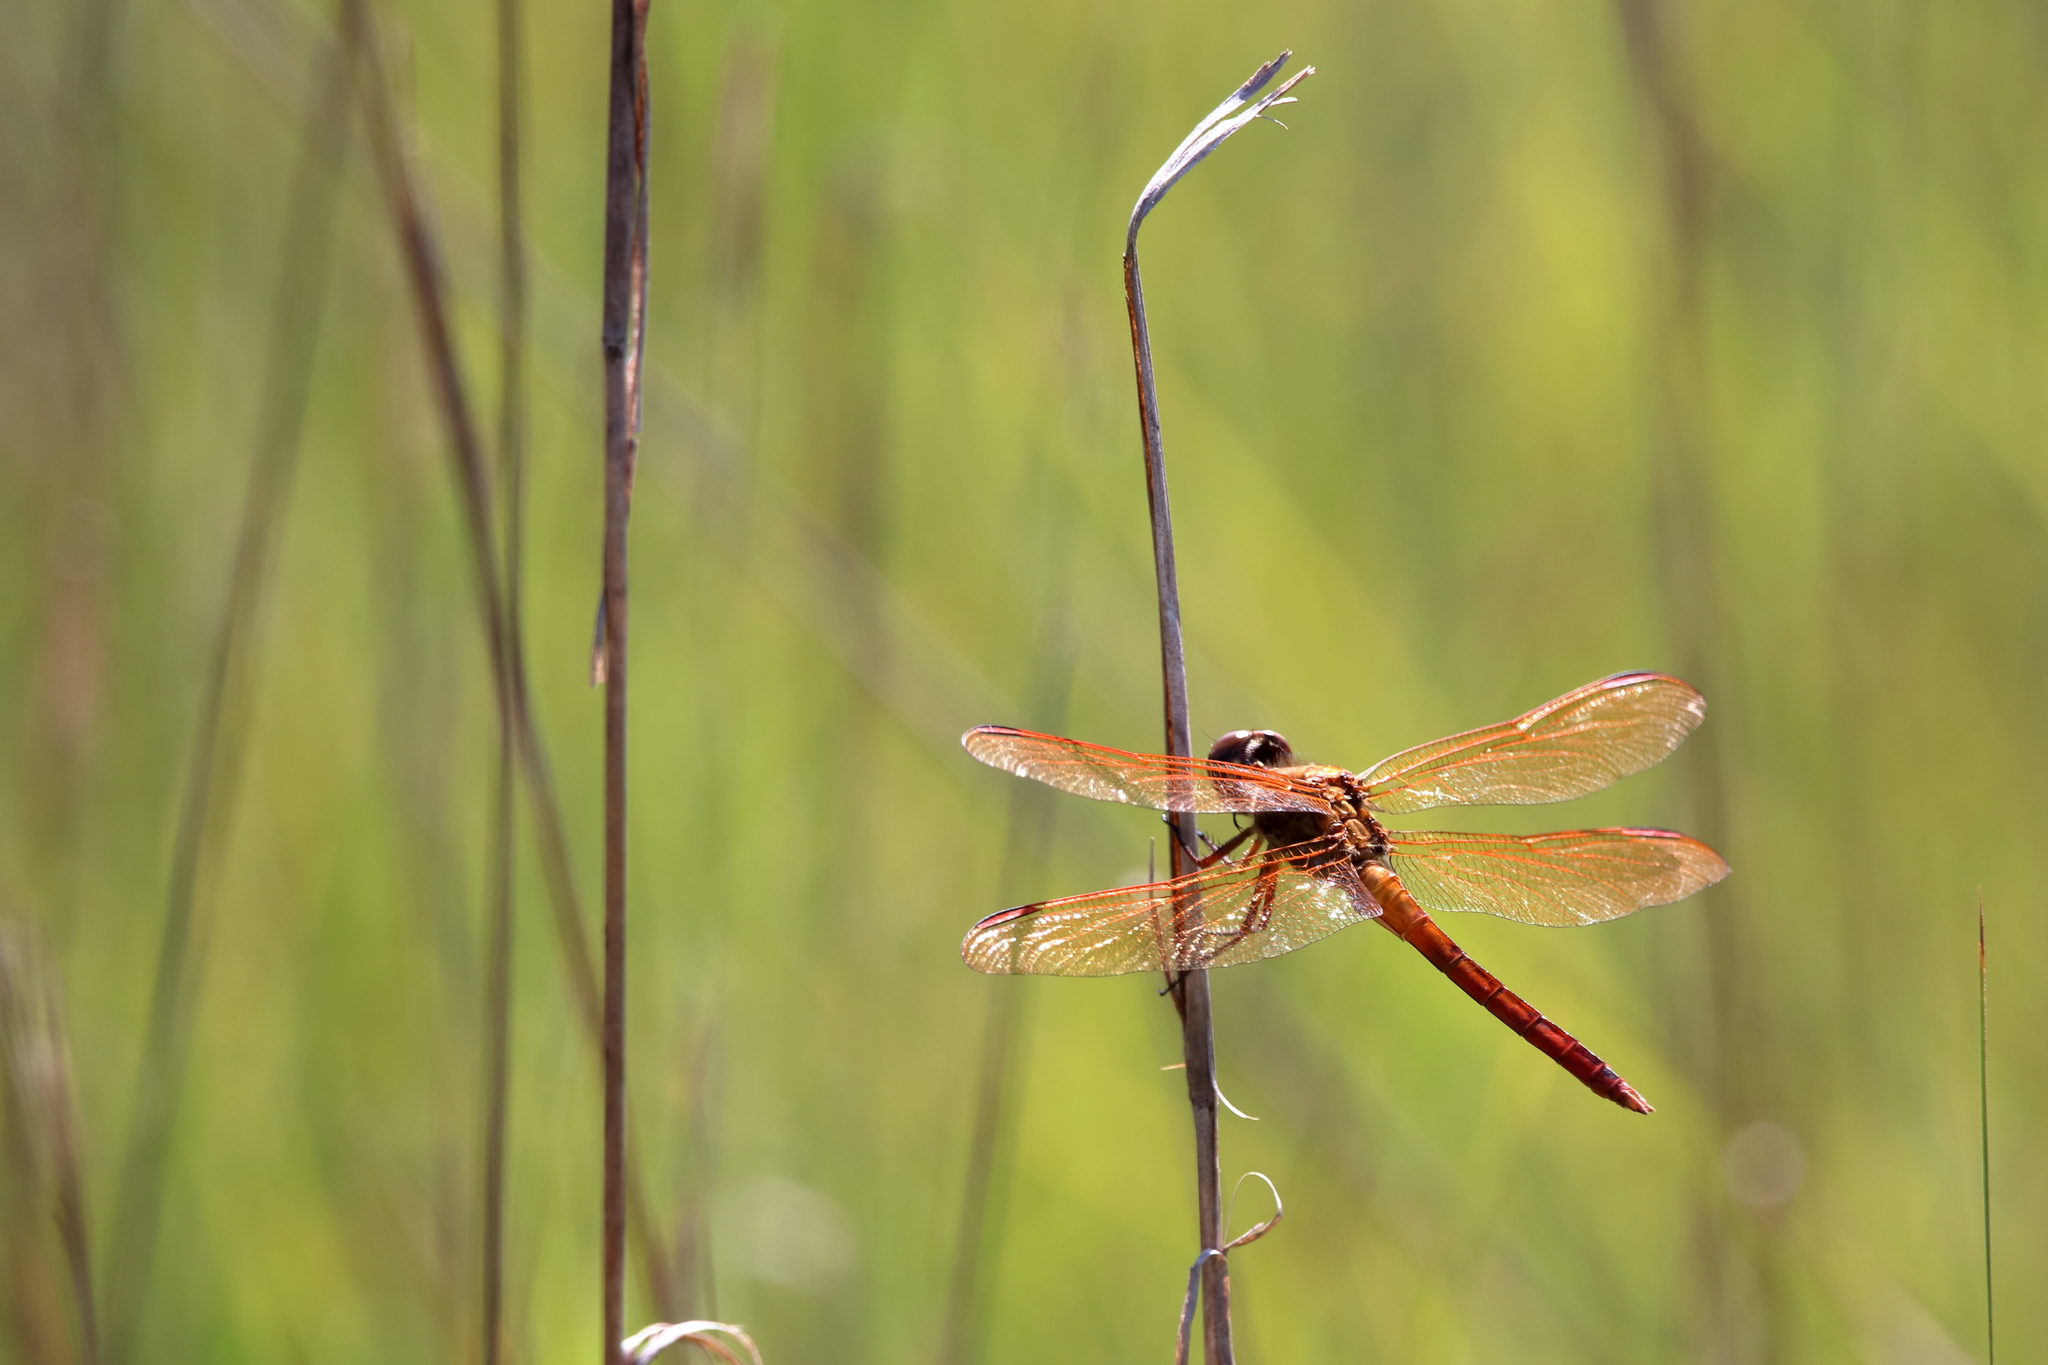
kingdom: Animalia
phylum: Arthropoda
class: Insecta
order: Odonata
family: Libellulidae
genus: Libellula
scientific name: Libellula auripennis
